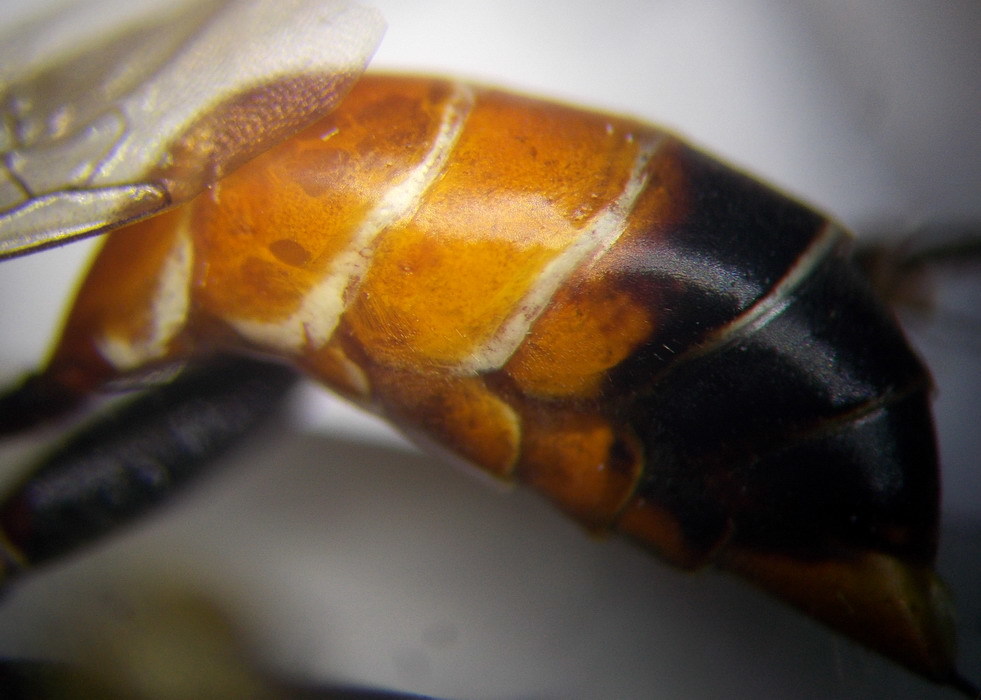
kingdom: Animalia
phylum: Arthropoda
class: Insecta
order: Hymenoptera
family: Sphecidae
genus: Prionyx
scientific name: Prionyx kirbii
